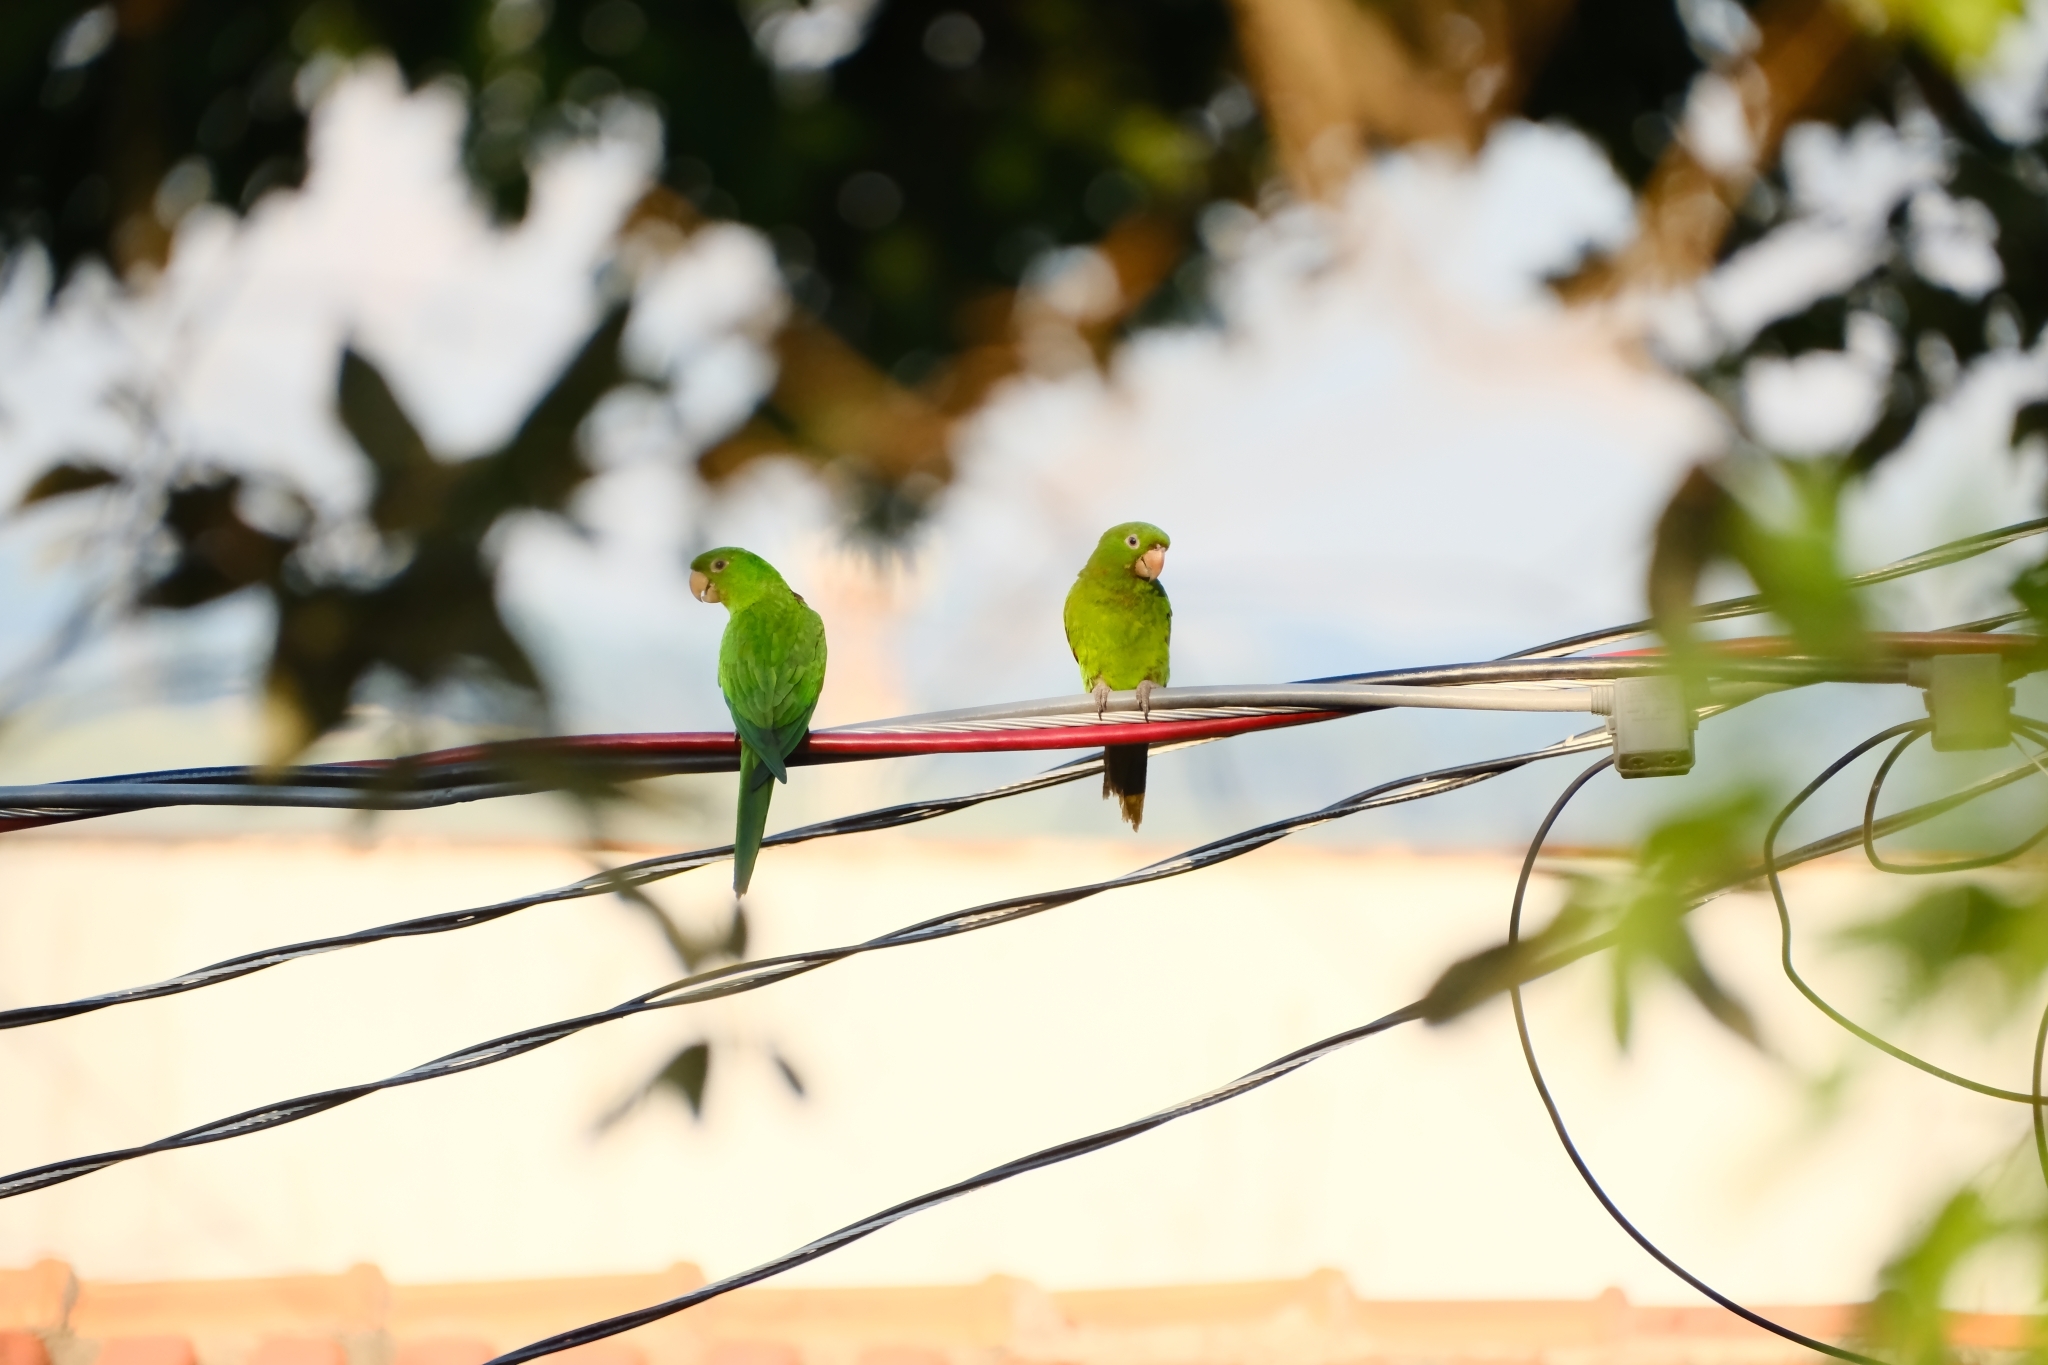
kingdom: Animalia
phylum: Chordata
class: Aves
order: Psittaciformes
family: Psittacidae
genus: Aratinga
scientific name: Aratinga leucophthalma
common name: White-eyed parakeet
